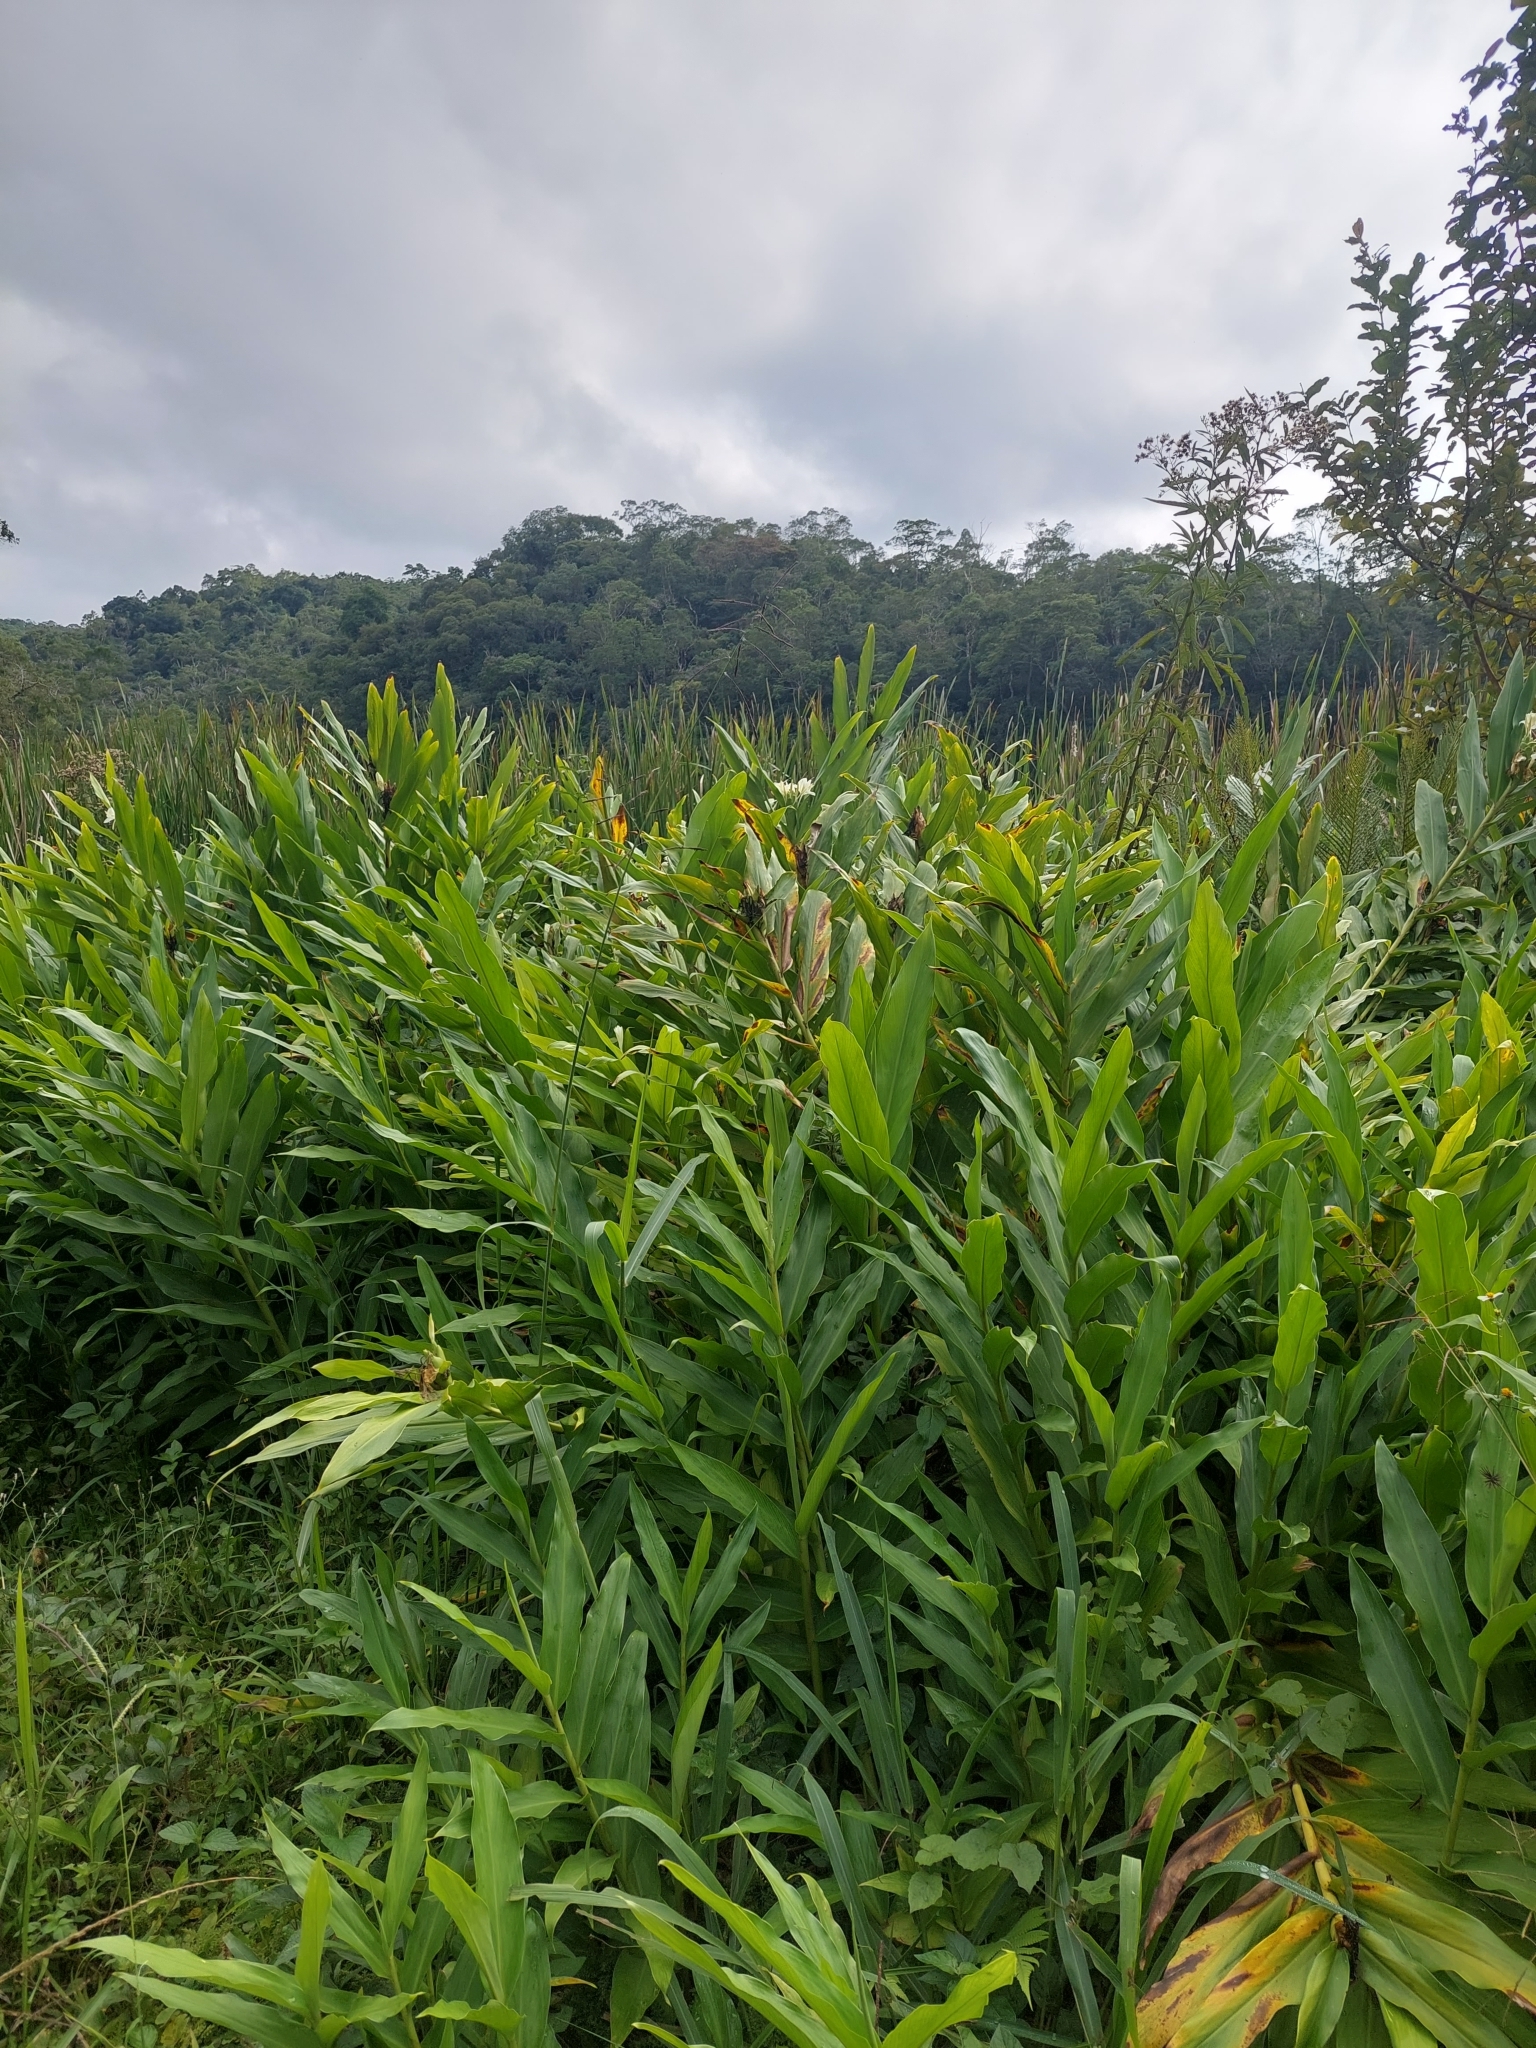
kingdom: Plantae
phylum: Tracheophyta
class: Liliopsida
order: Zingiberales
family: Zingiberaceae
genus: Hedychium
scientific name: Hedychium coronarium
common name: White garland-lily
